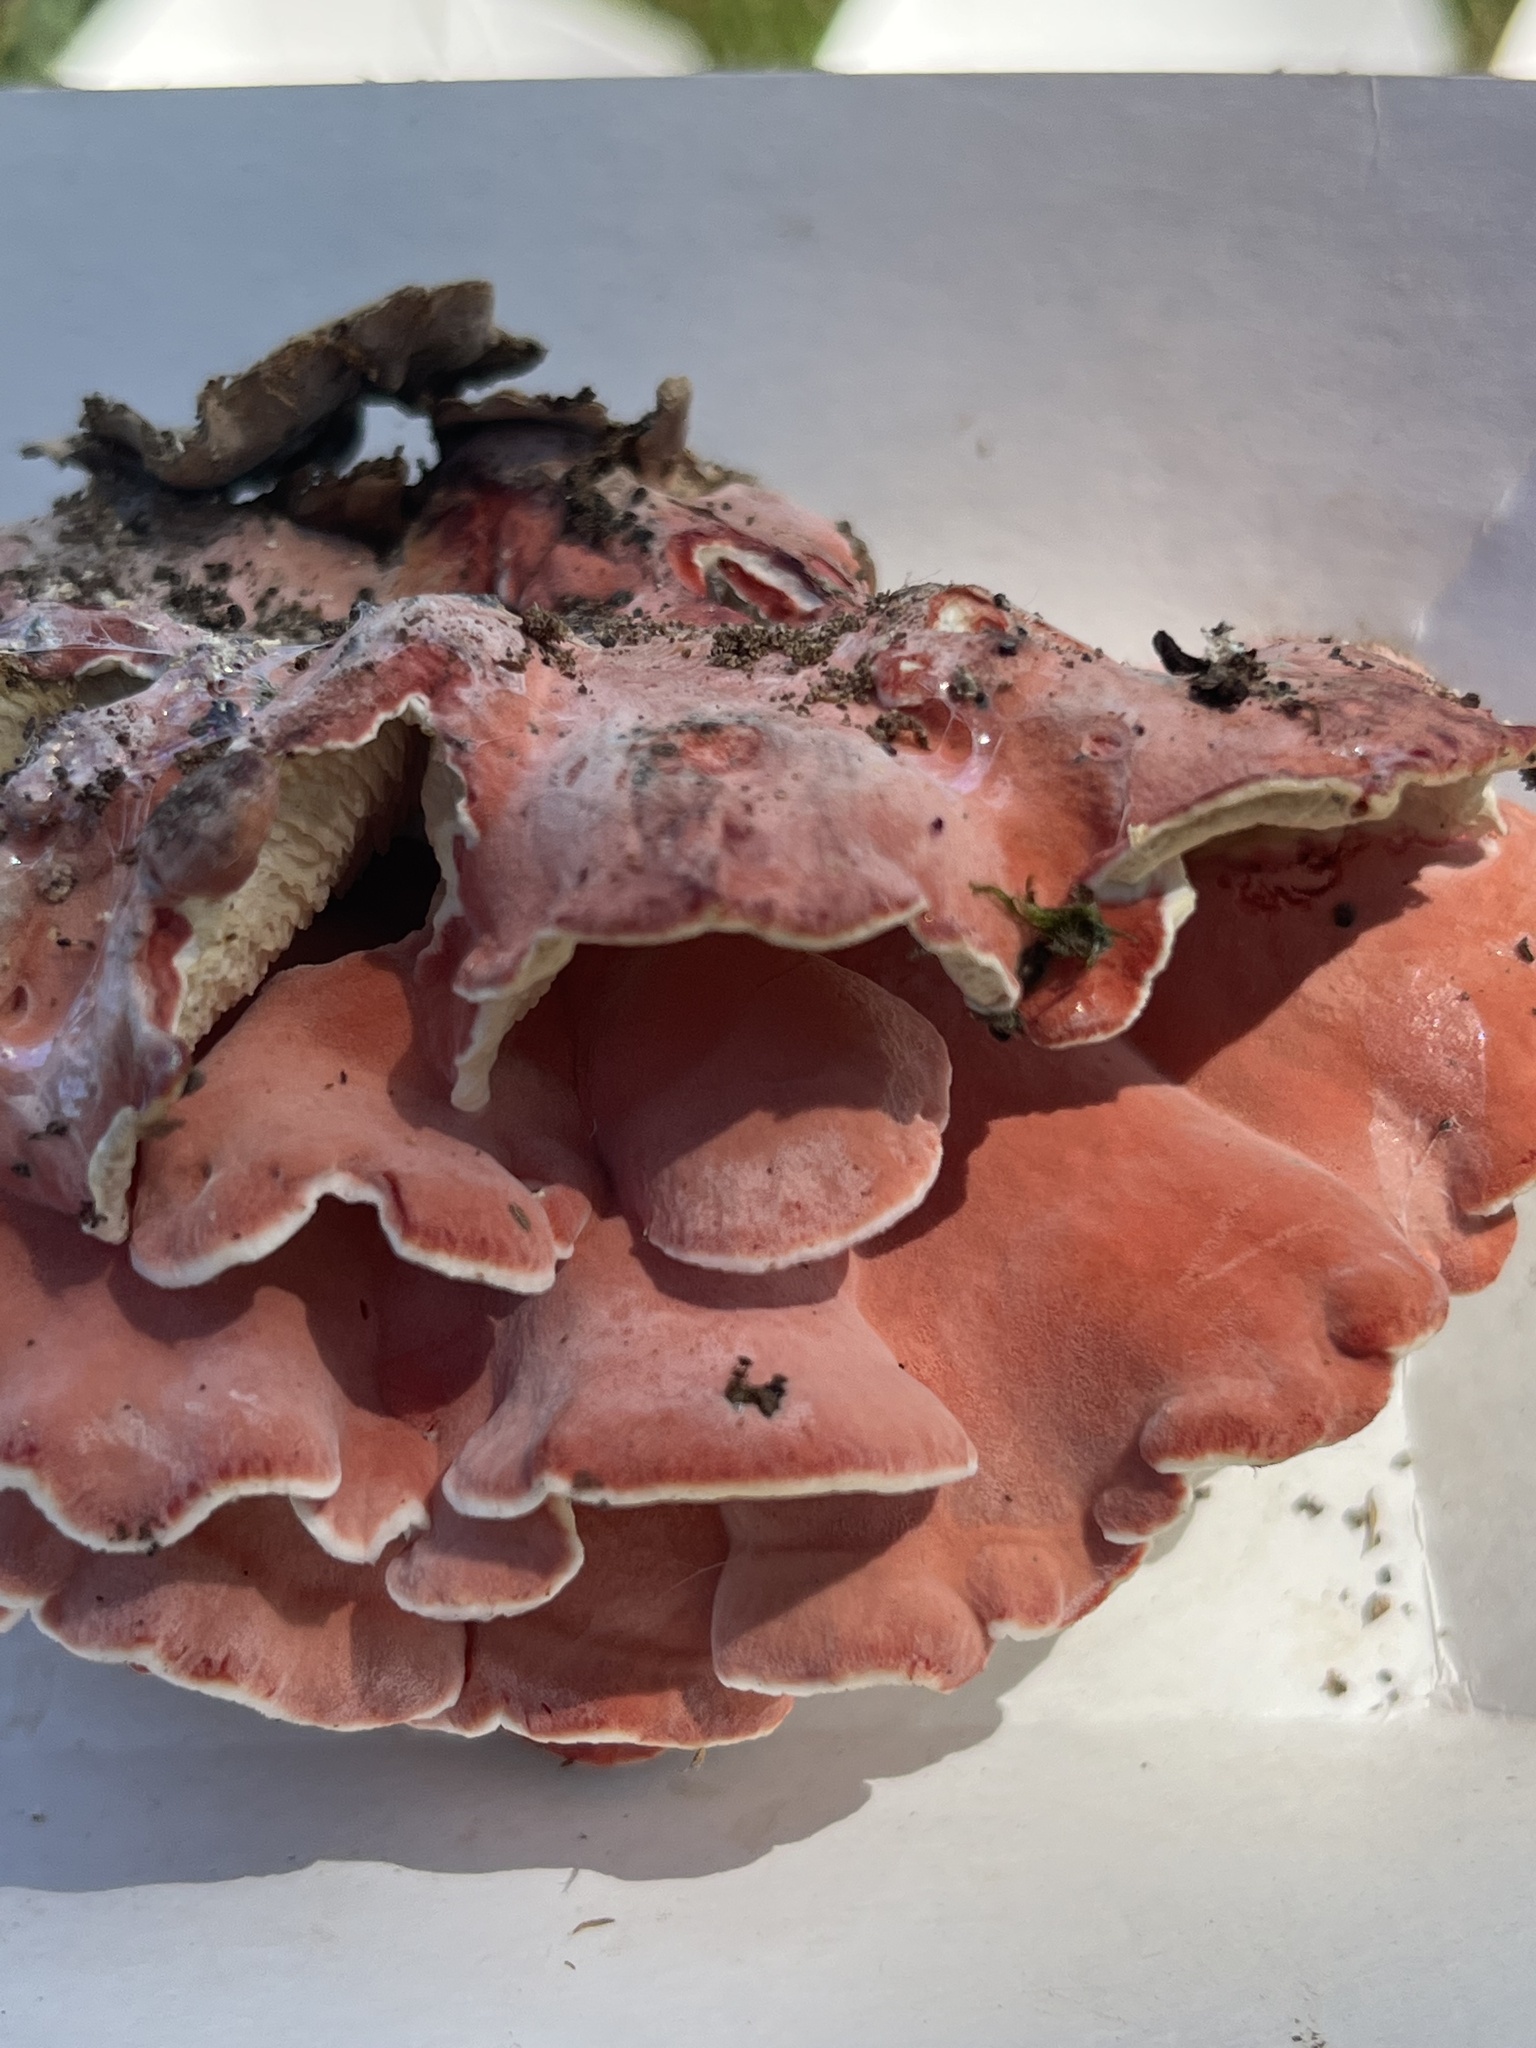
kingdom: Fungi
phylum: Basidiomycota
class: Agaricomycetes
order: Polyporales
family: Irpicaceae
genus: Byssomerulius
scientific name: Byssomerulius incarnatus
